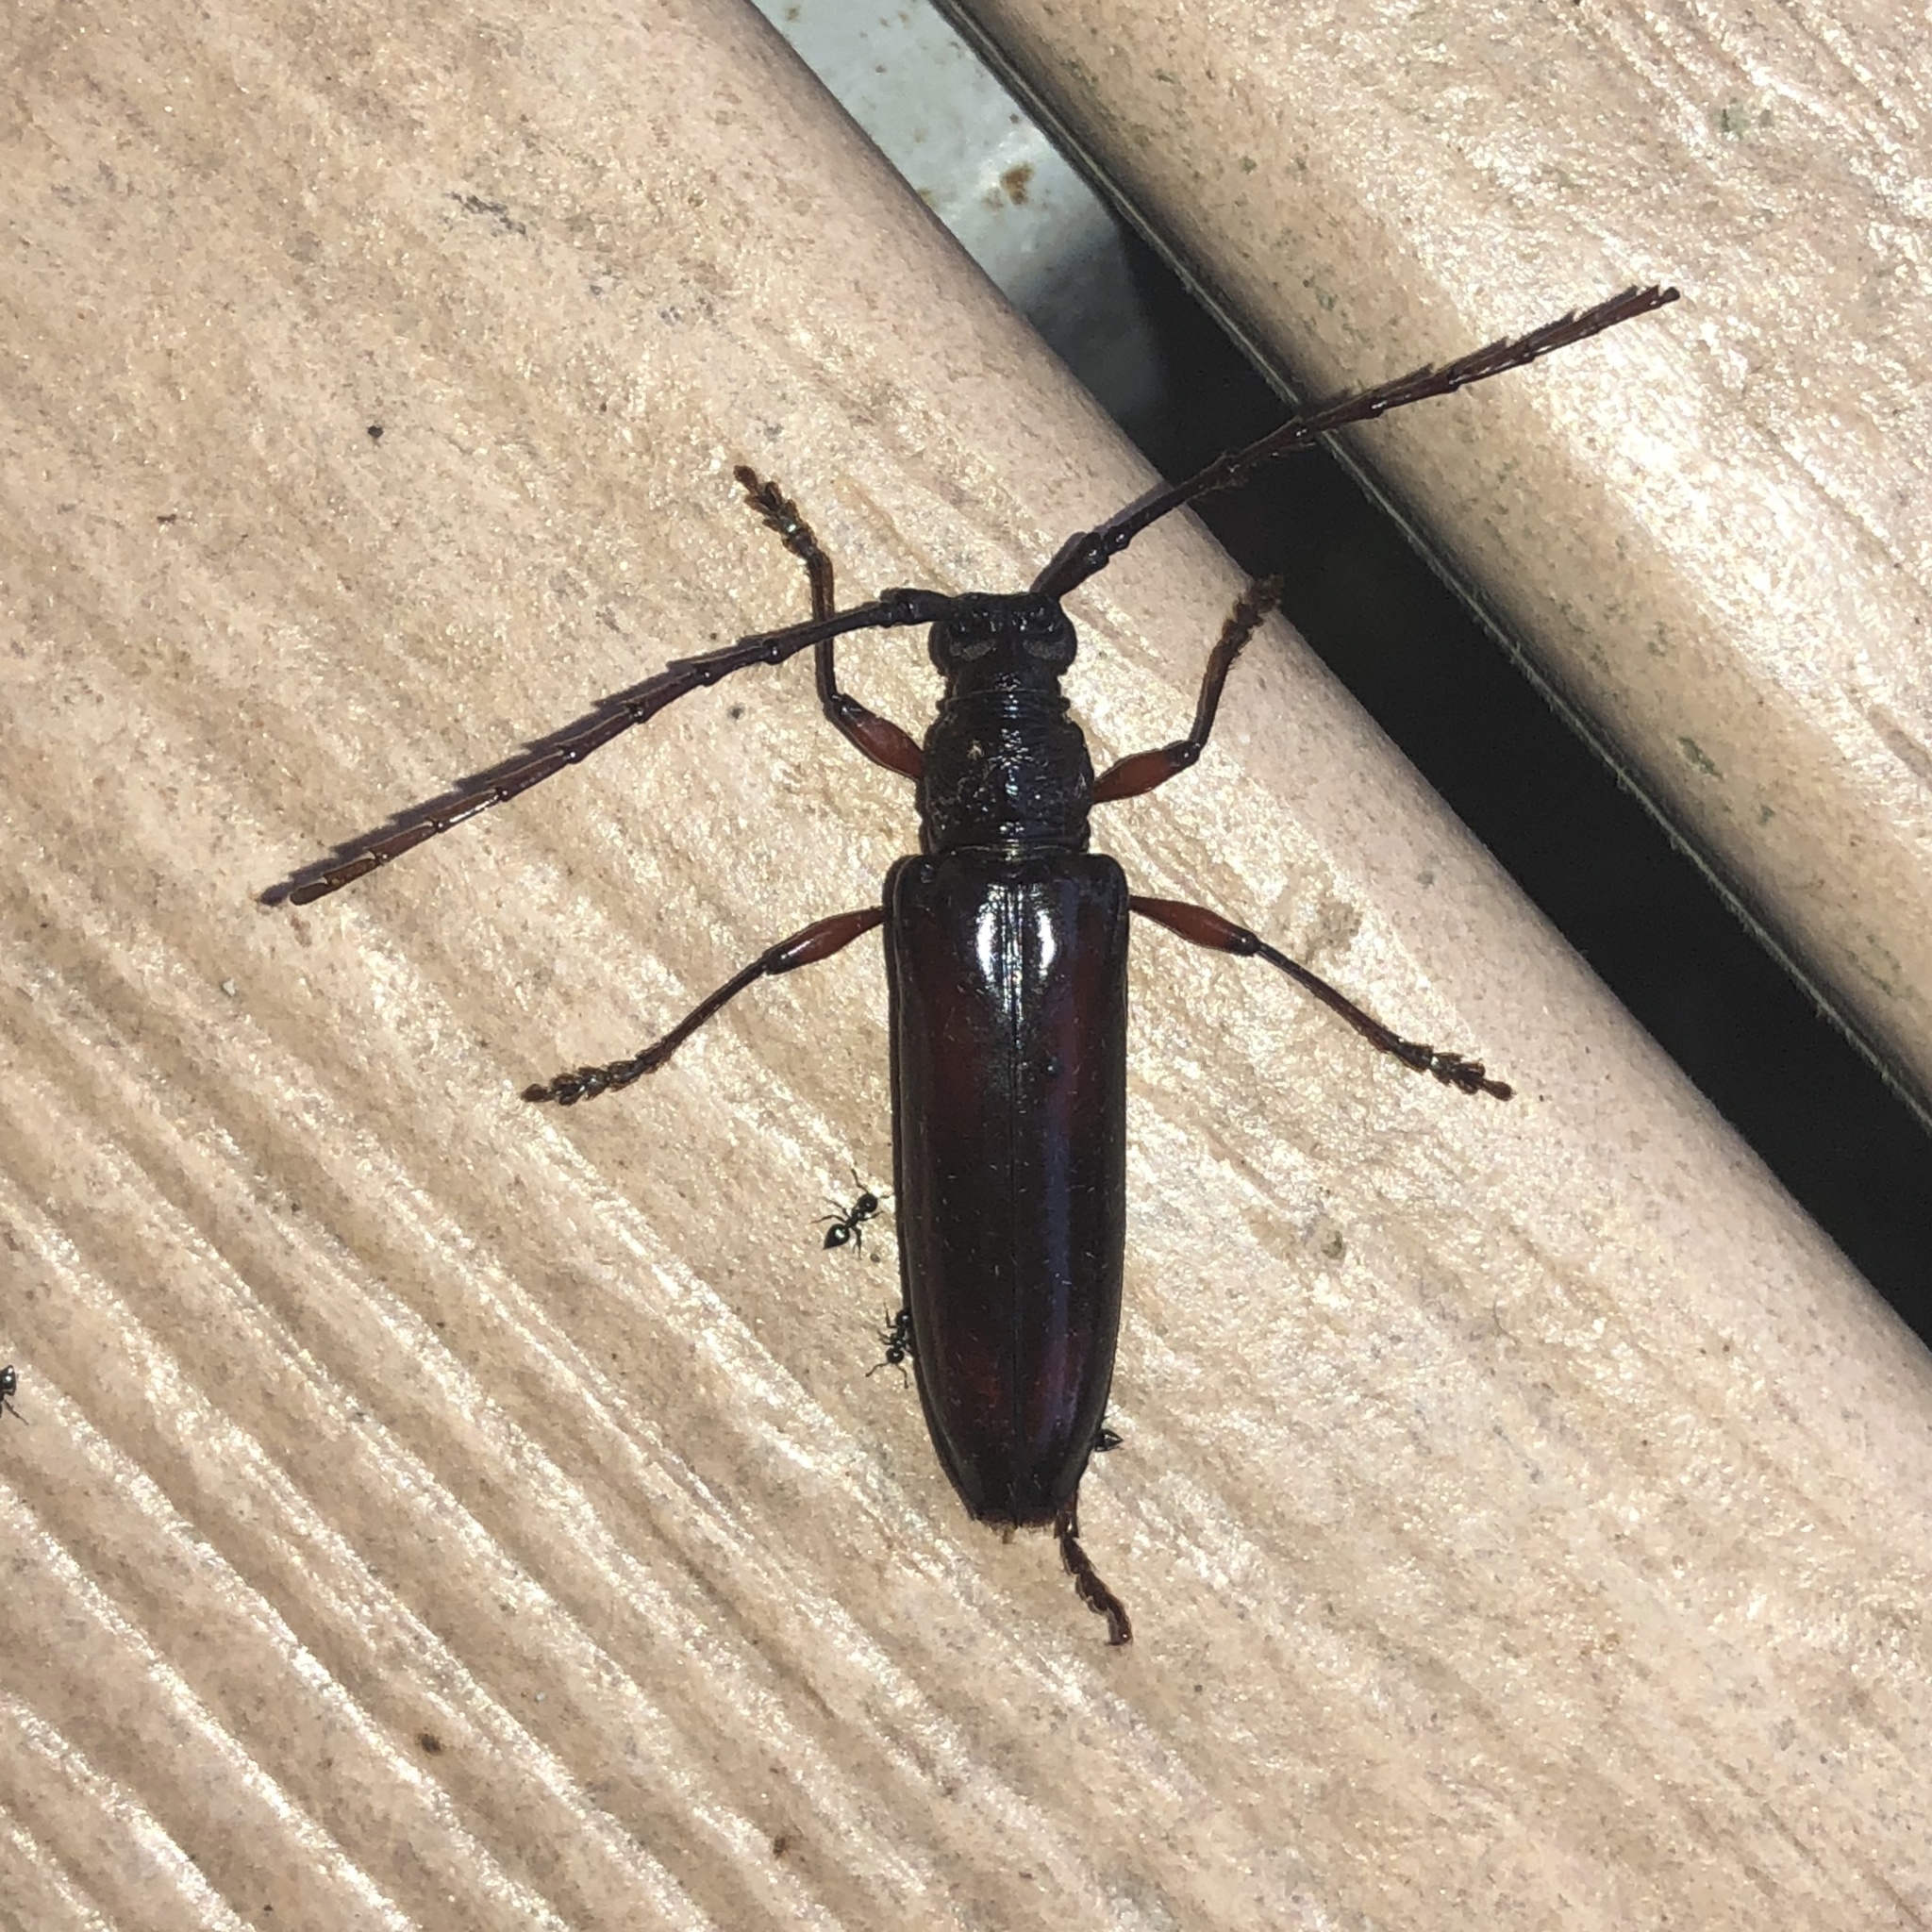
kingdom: Animalia
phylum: Arthropoda
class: Insecta
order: Coleoptera
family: Cerambycidae
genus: Coleoxestia
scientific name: Coleoxestia rubromaculata
